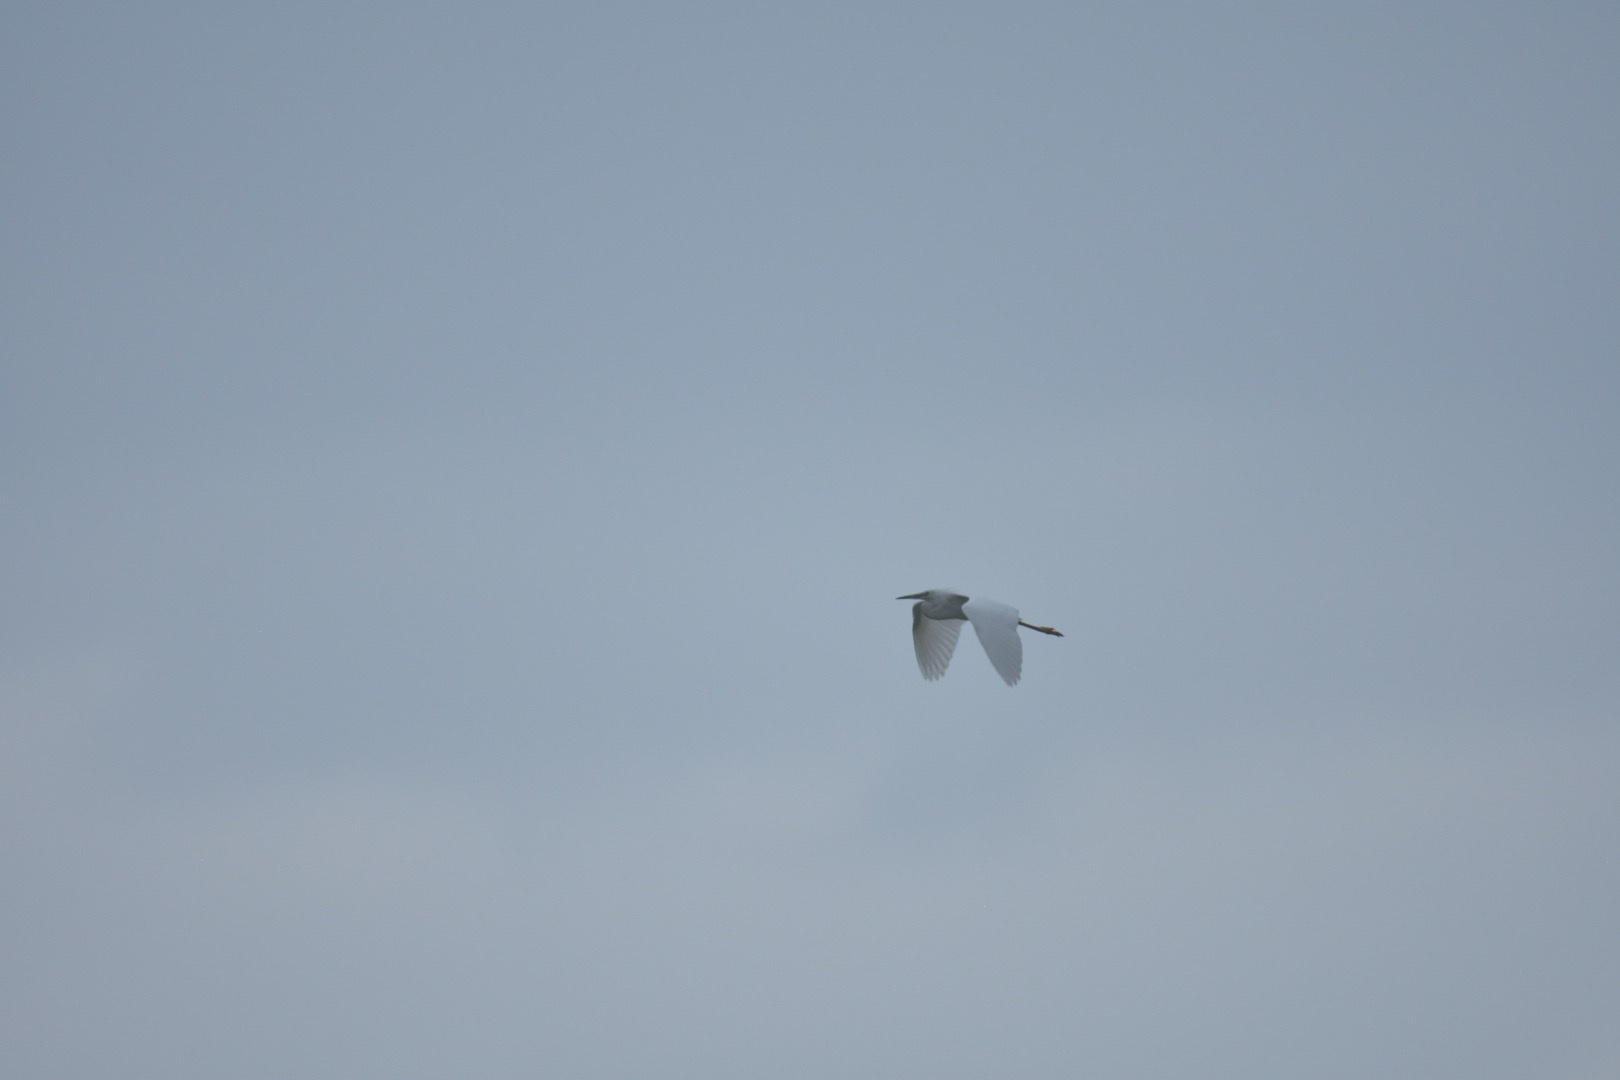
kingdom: Animalia
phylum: Chordata
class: Aves
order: Pelecaniformes
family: Ardeidae
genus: Egretta
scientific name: Egretta garzetta
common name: Little egret
